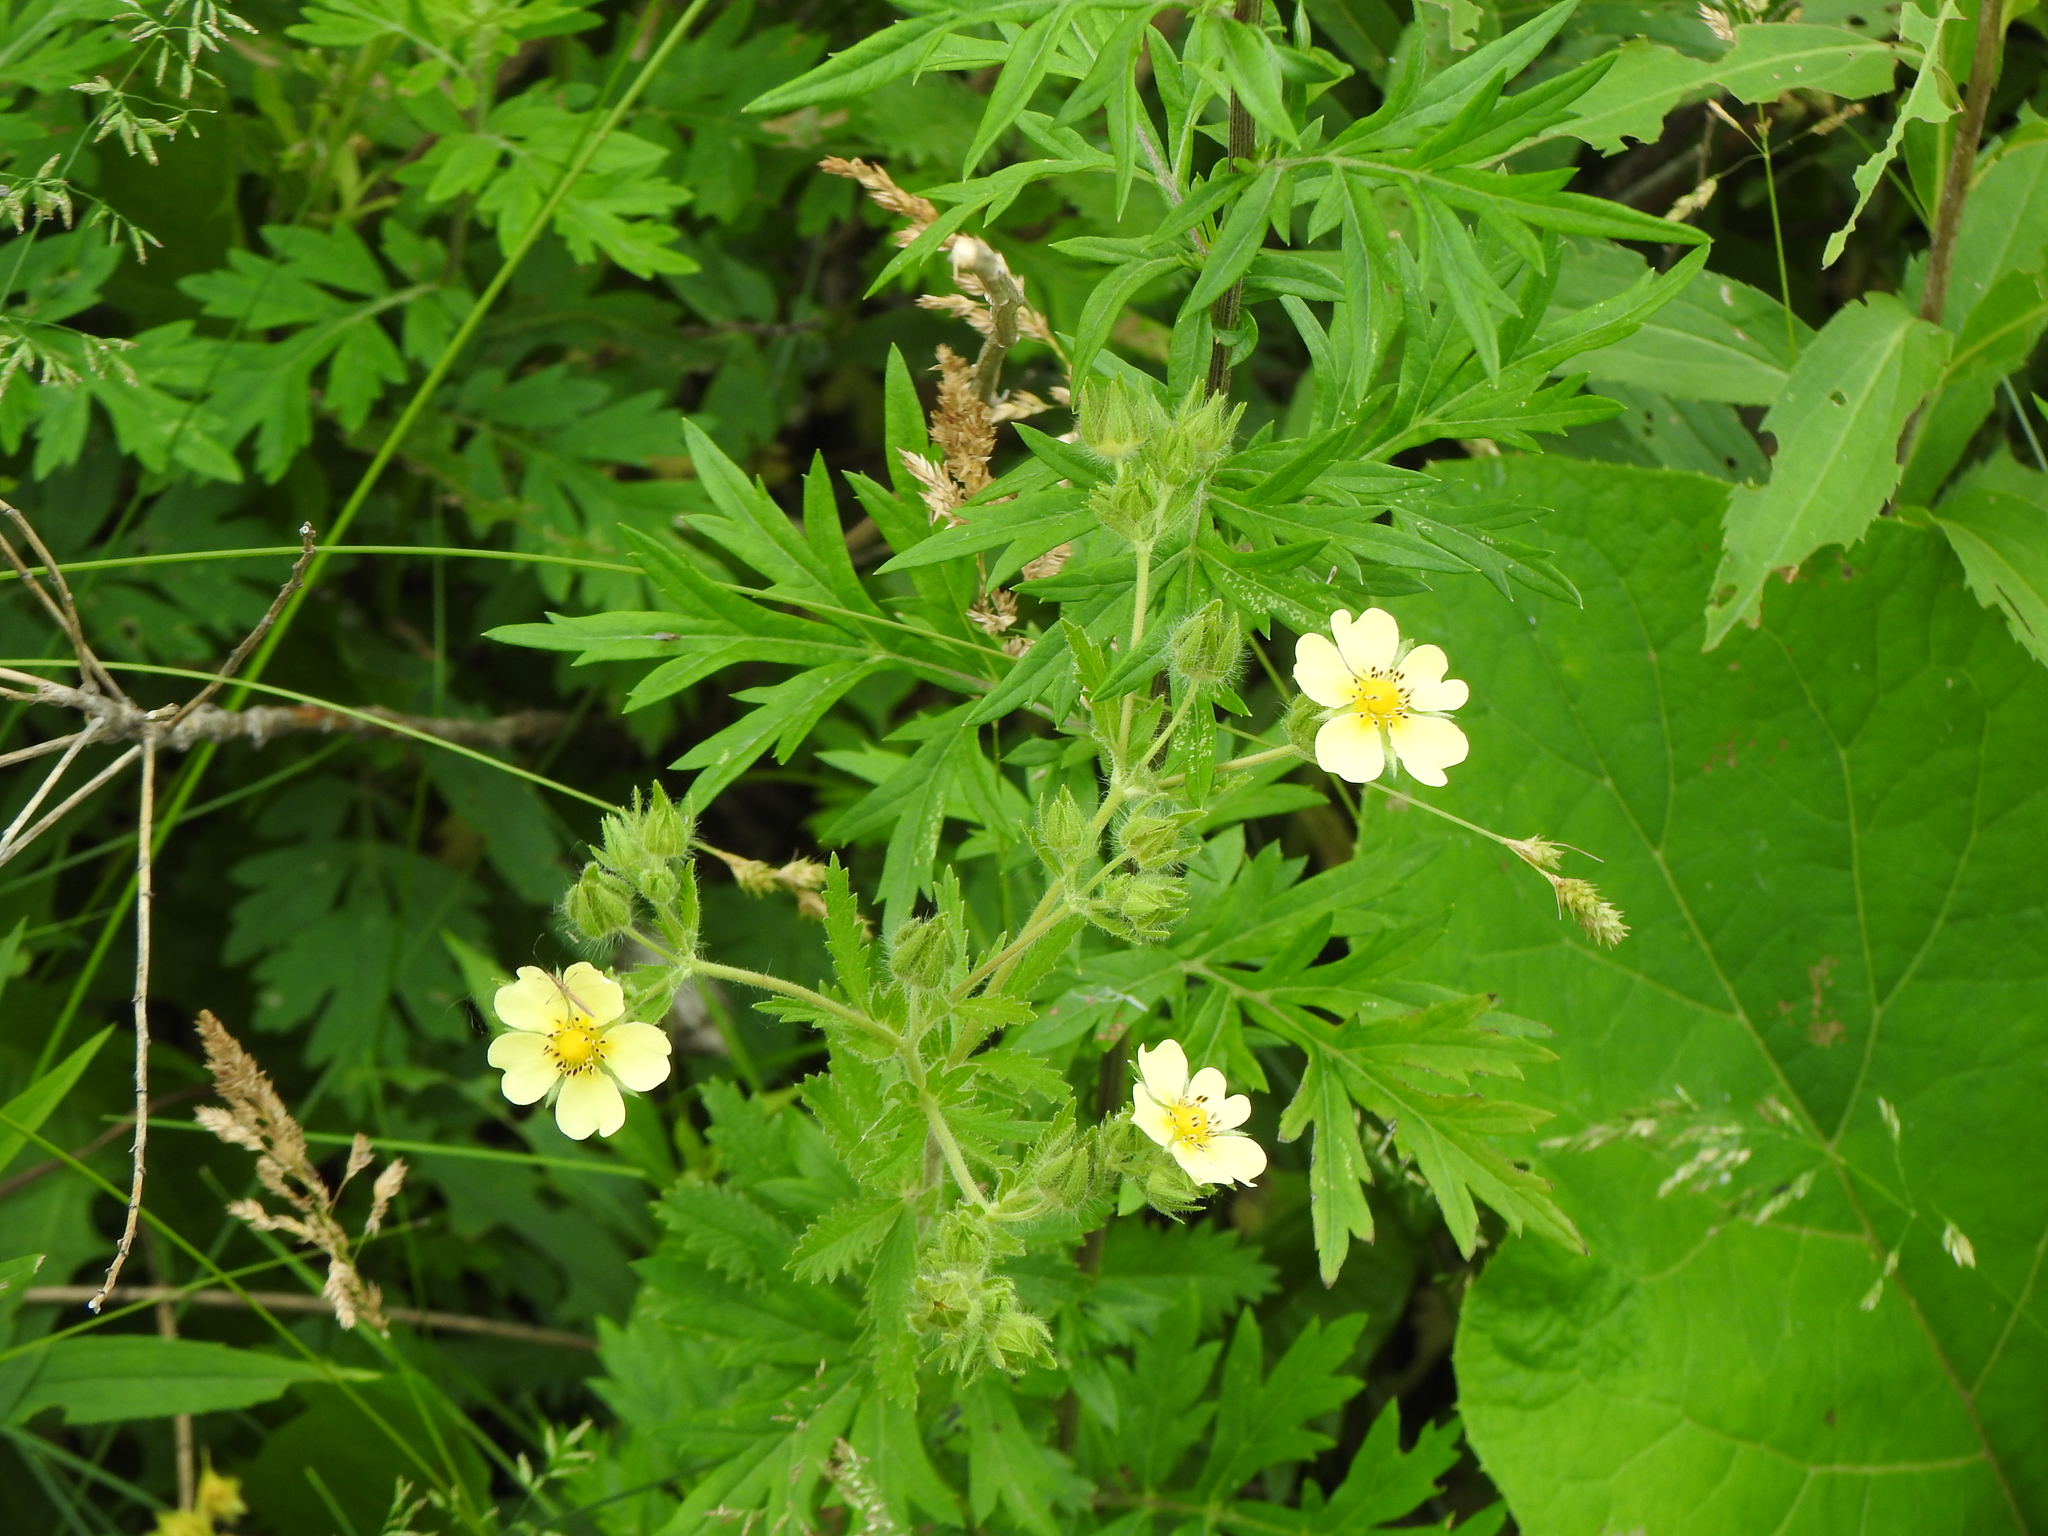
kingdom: Plantae
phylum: Tracheophyta
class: Magnoliopsida
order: Rosales
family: Rosaceae
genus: Potentilla
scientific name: Potentilla recta
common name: Sulphur cinquefoil
